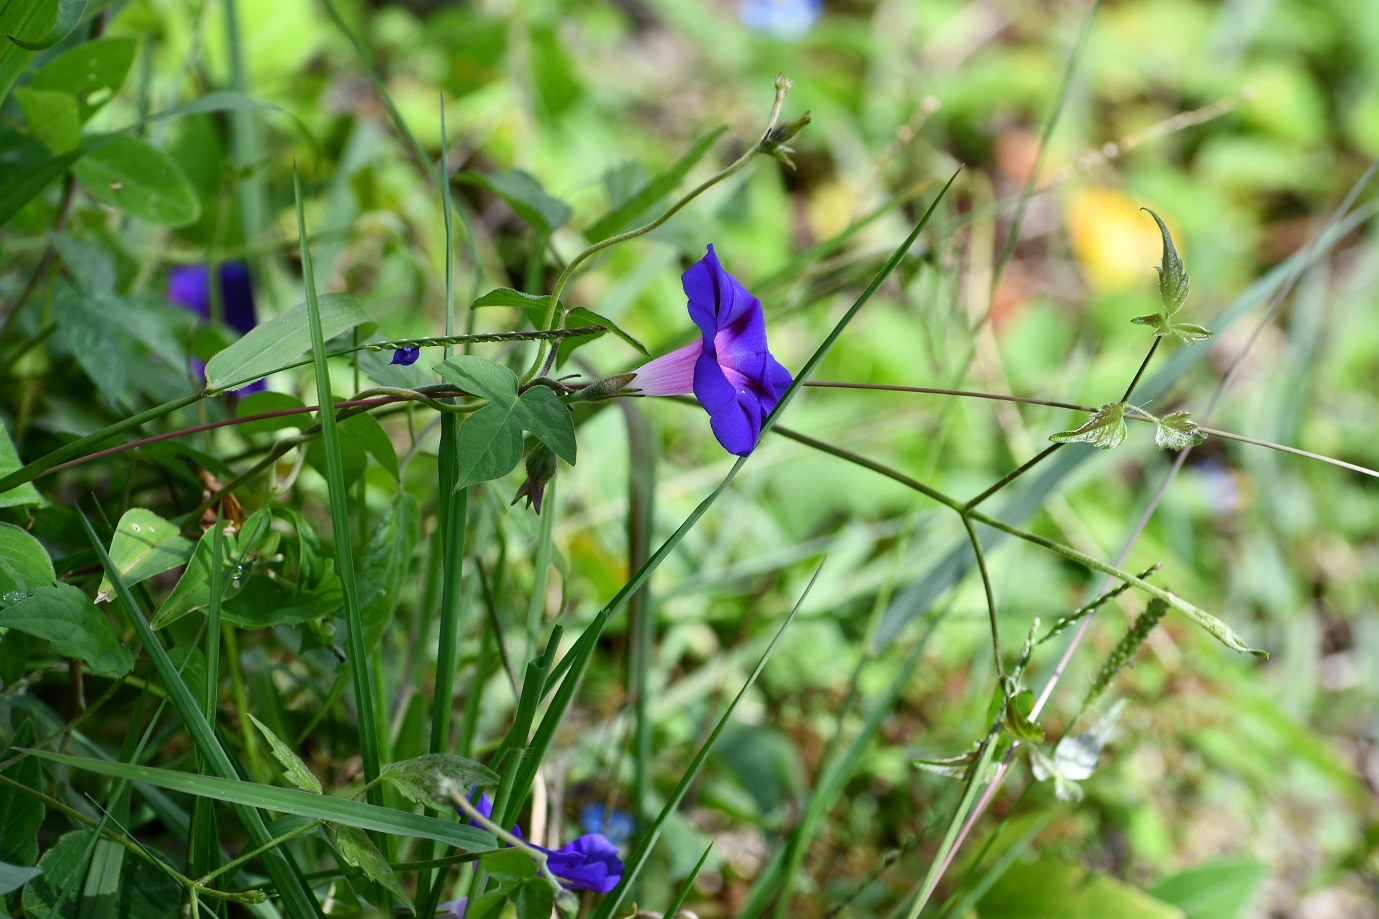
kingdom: Plantae
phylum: Tracheophyta
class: Magnoliopsida
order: Solanales
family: Convolvulaceae
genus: Ipomoea
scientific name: Ipomoea purpurea
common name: Common morning-glory
